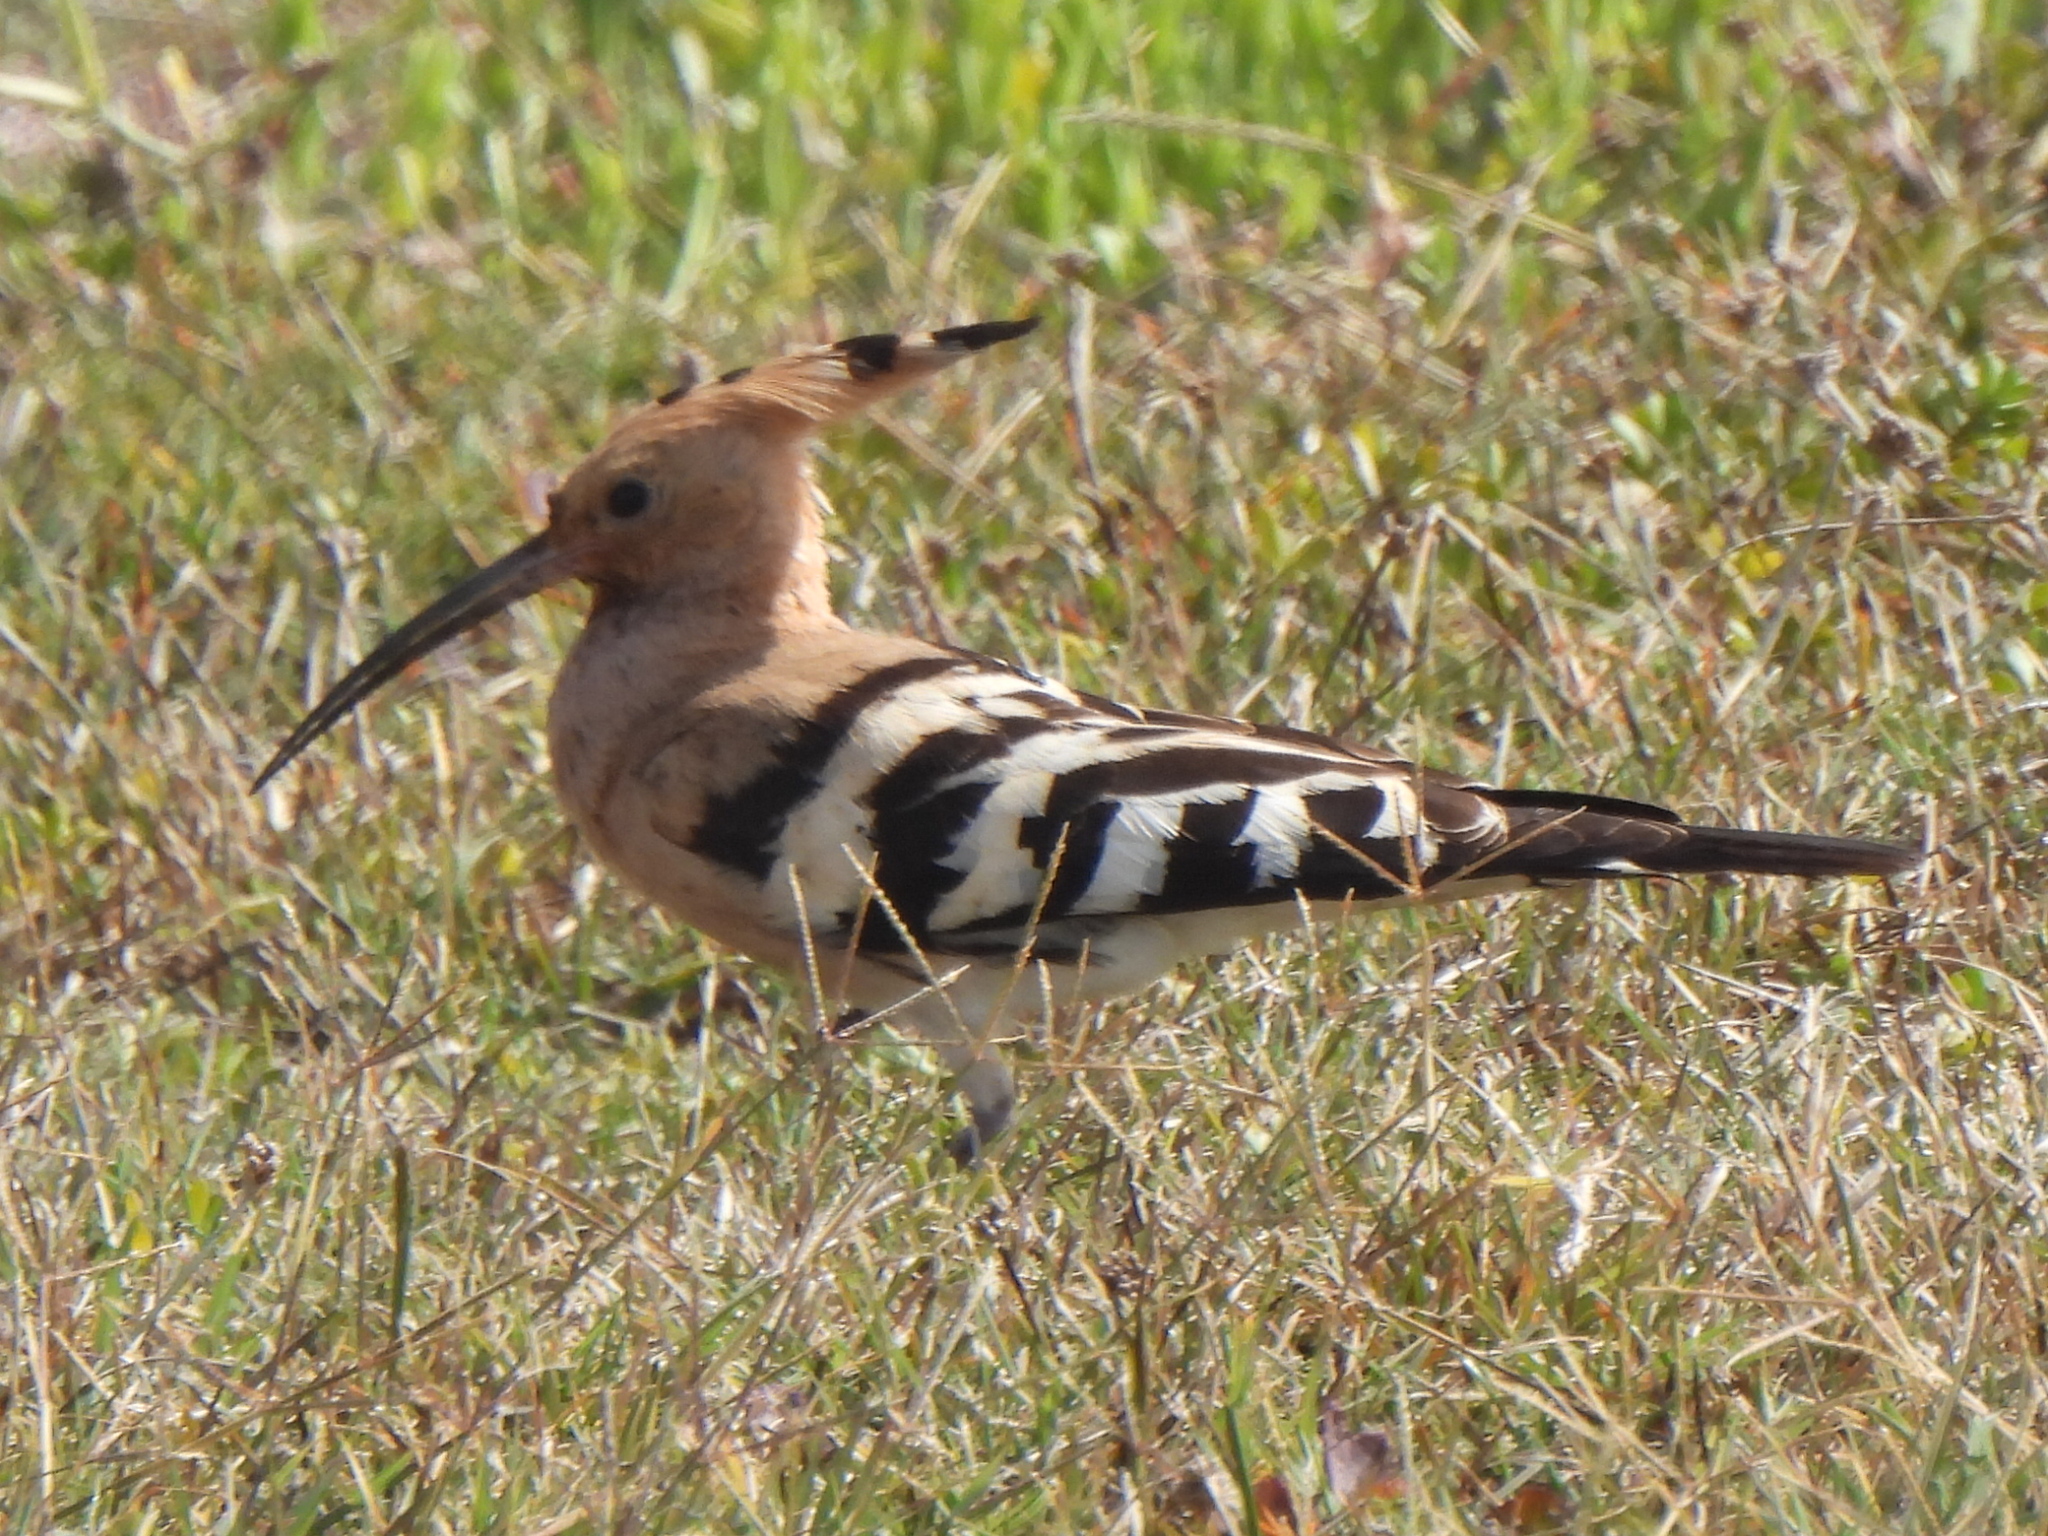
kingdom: Animalia
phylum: Chordata
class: Aves
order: Bucerotiformes
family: Upupidae
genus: Upupa
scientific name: Upupa epops
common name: Eurasian hoopoe
